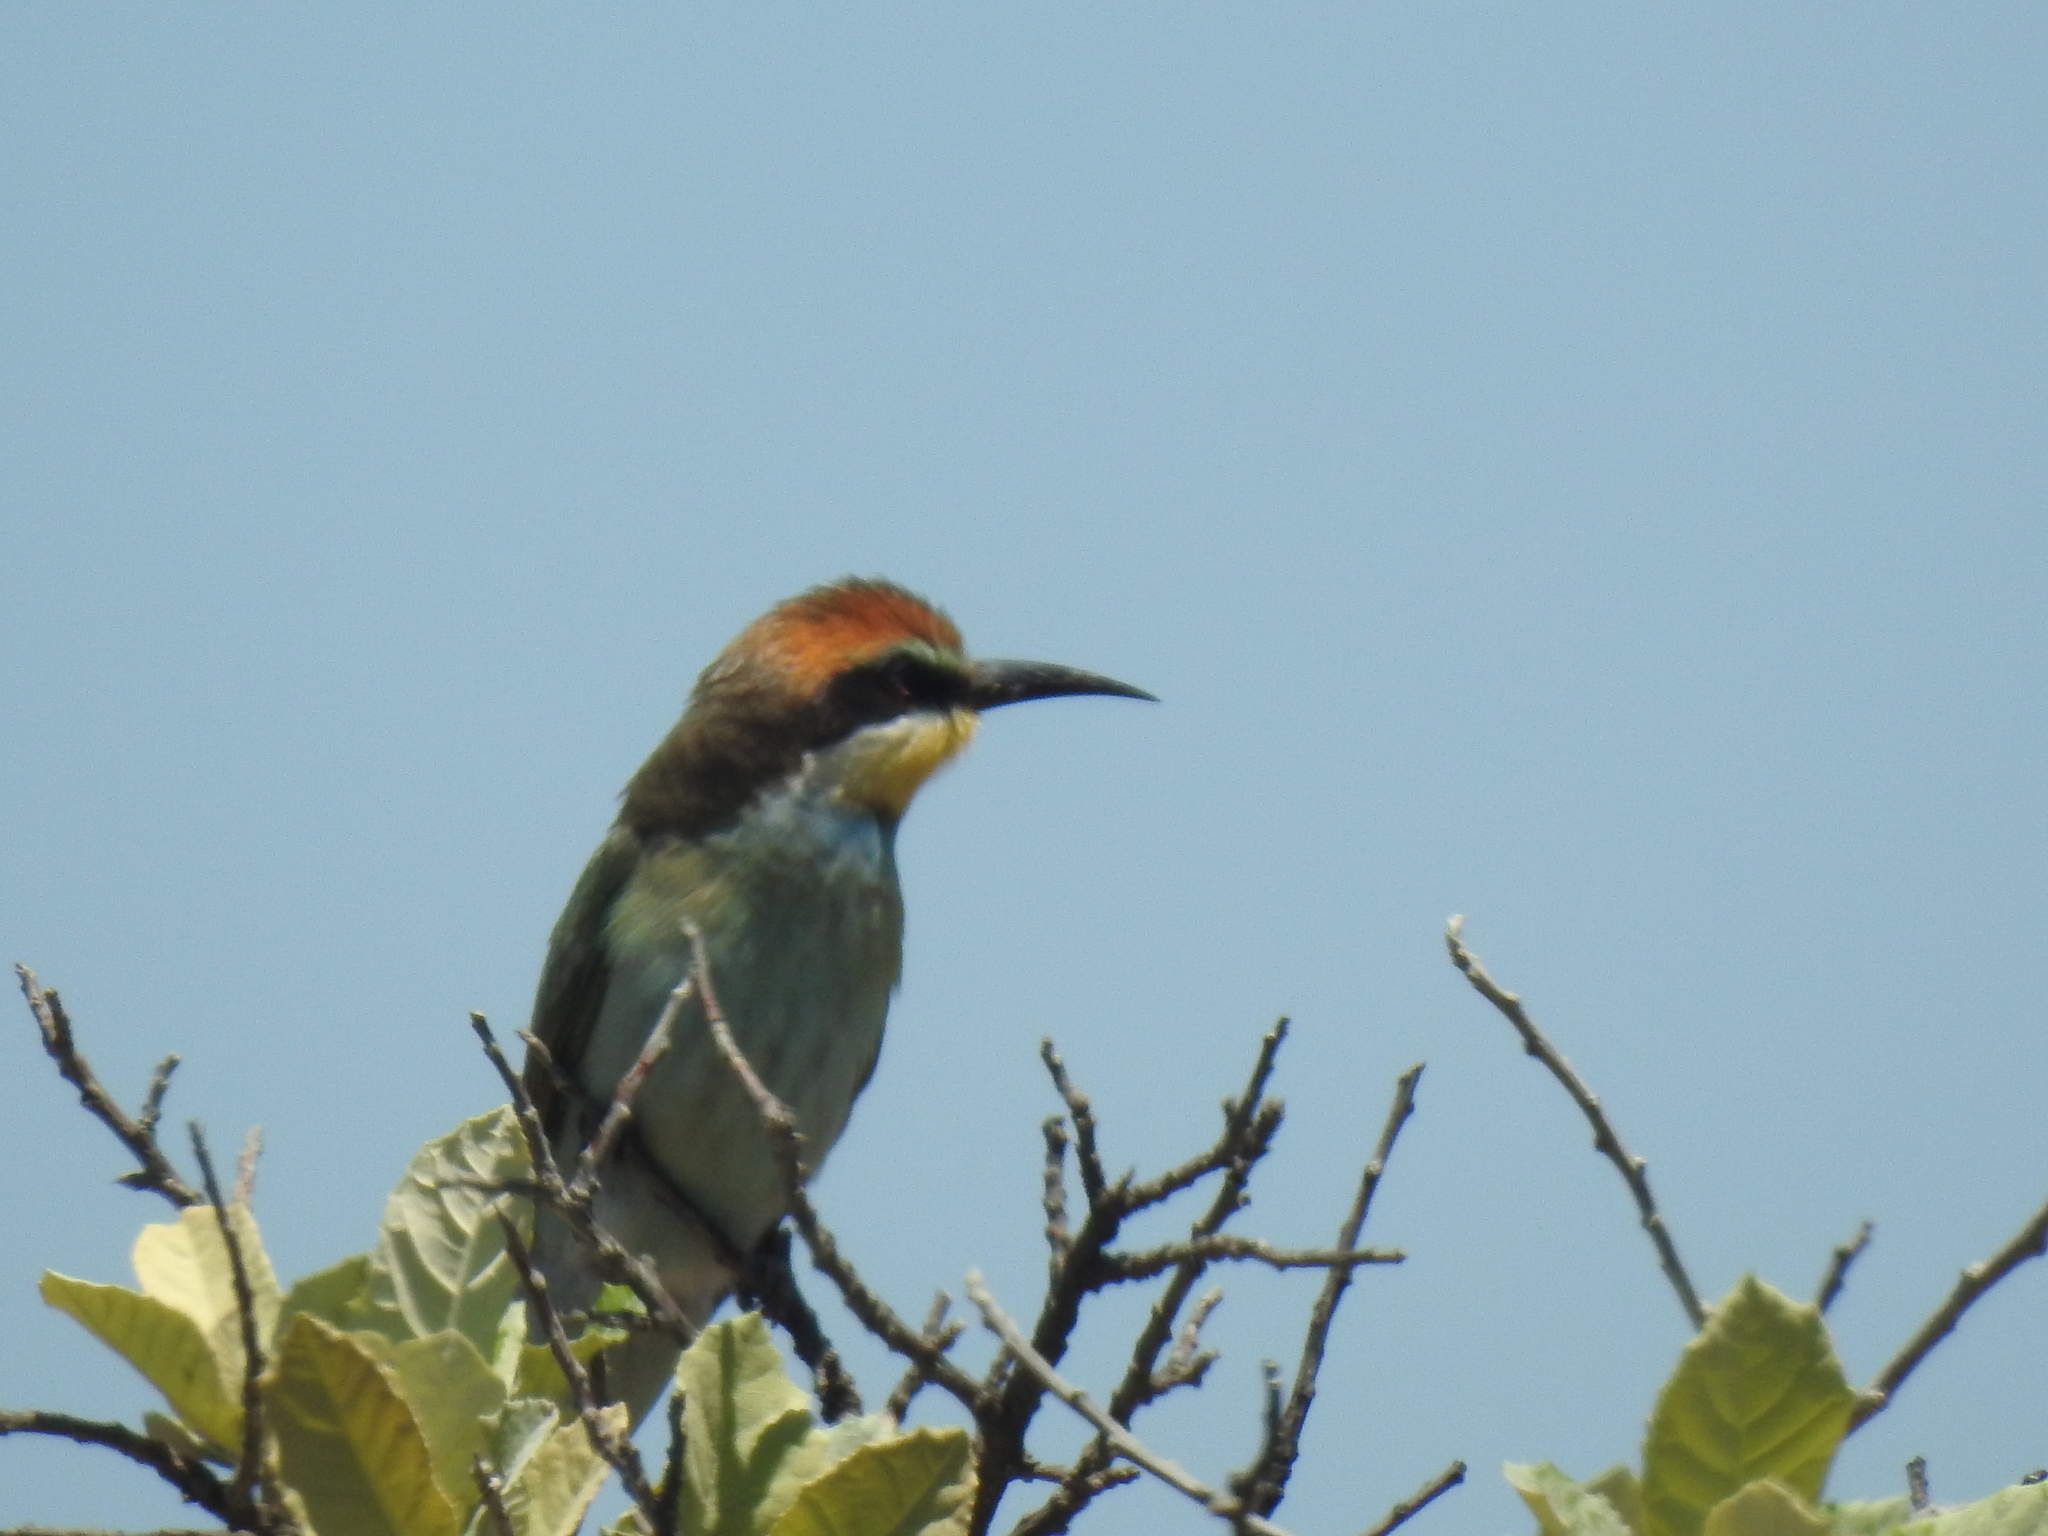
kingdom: Animalia
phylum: Chordata
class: Aves
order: Coraciiformes
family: Meropidae
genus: Merops
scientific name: Merops apiaster
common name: European bee-eater
